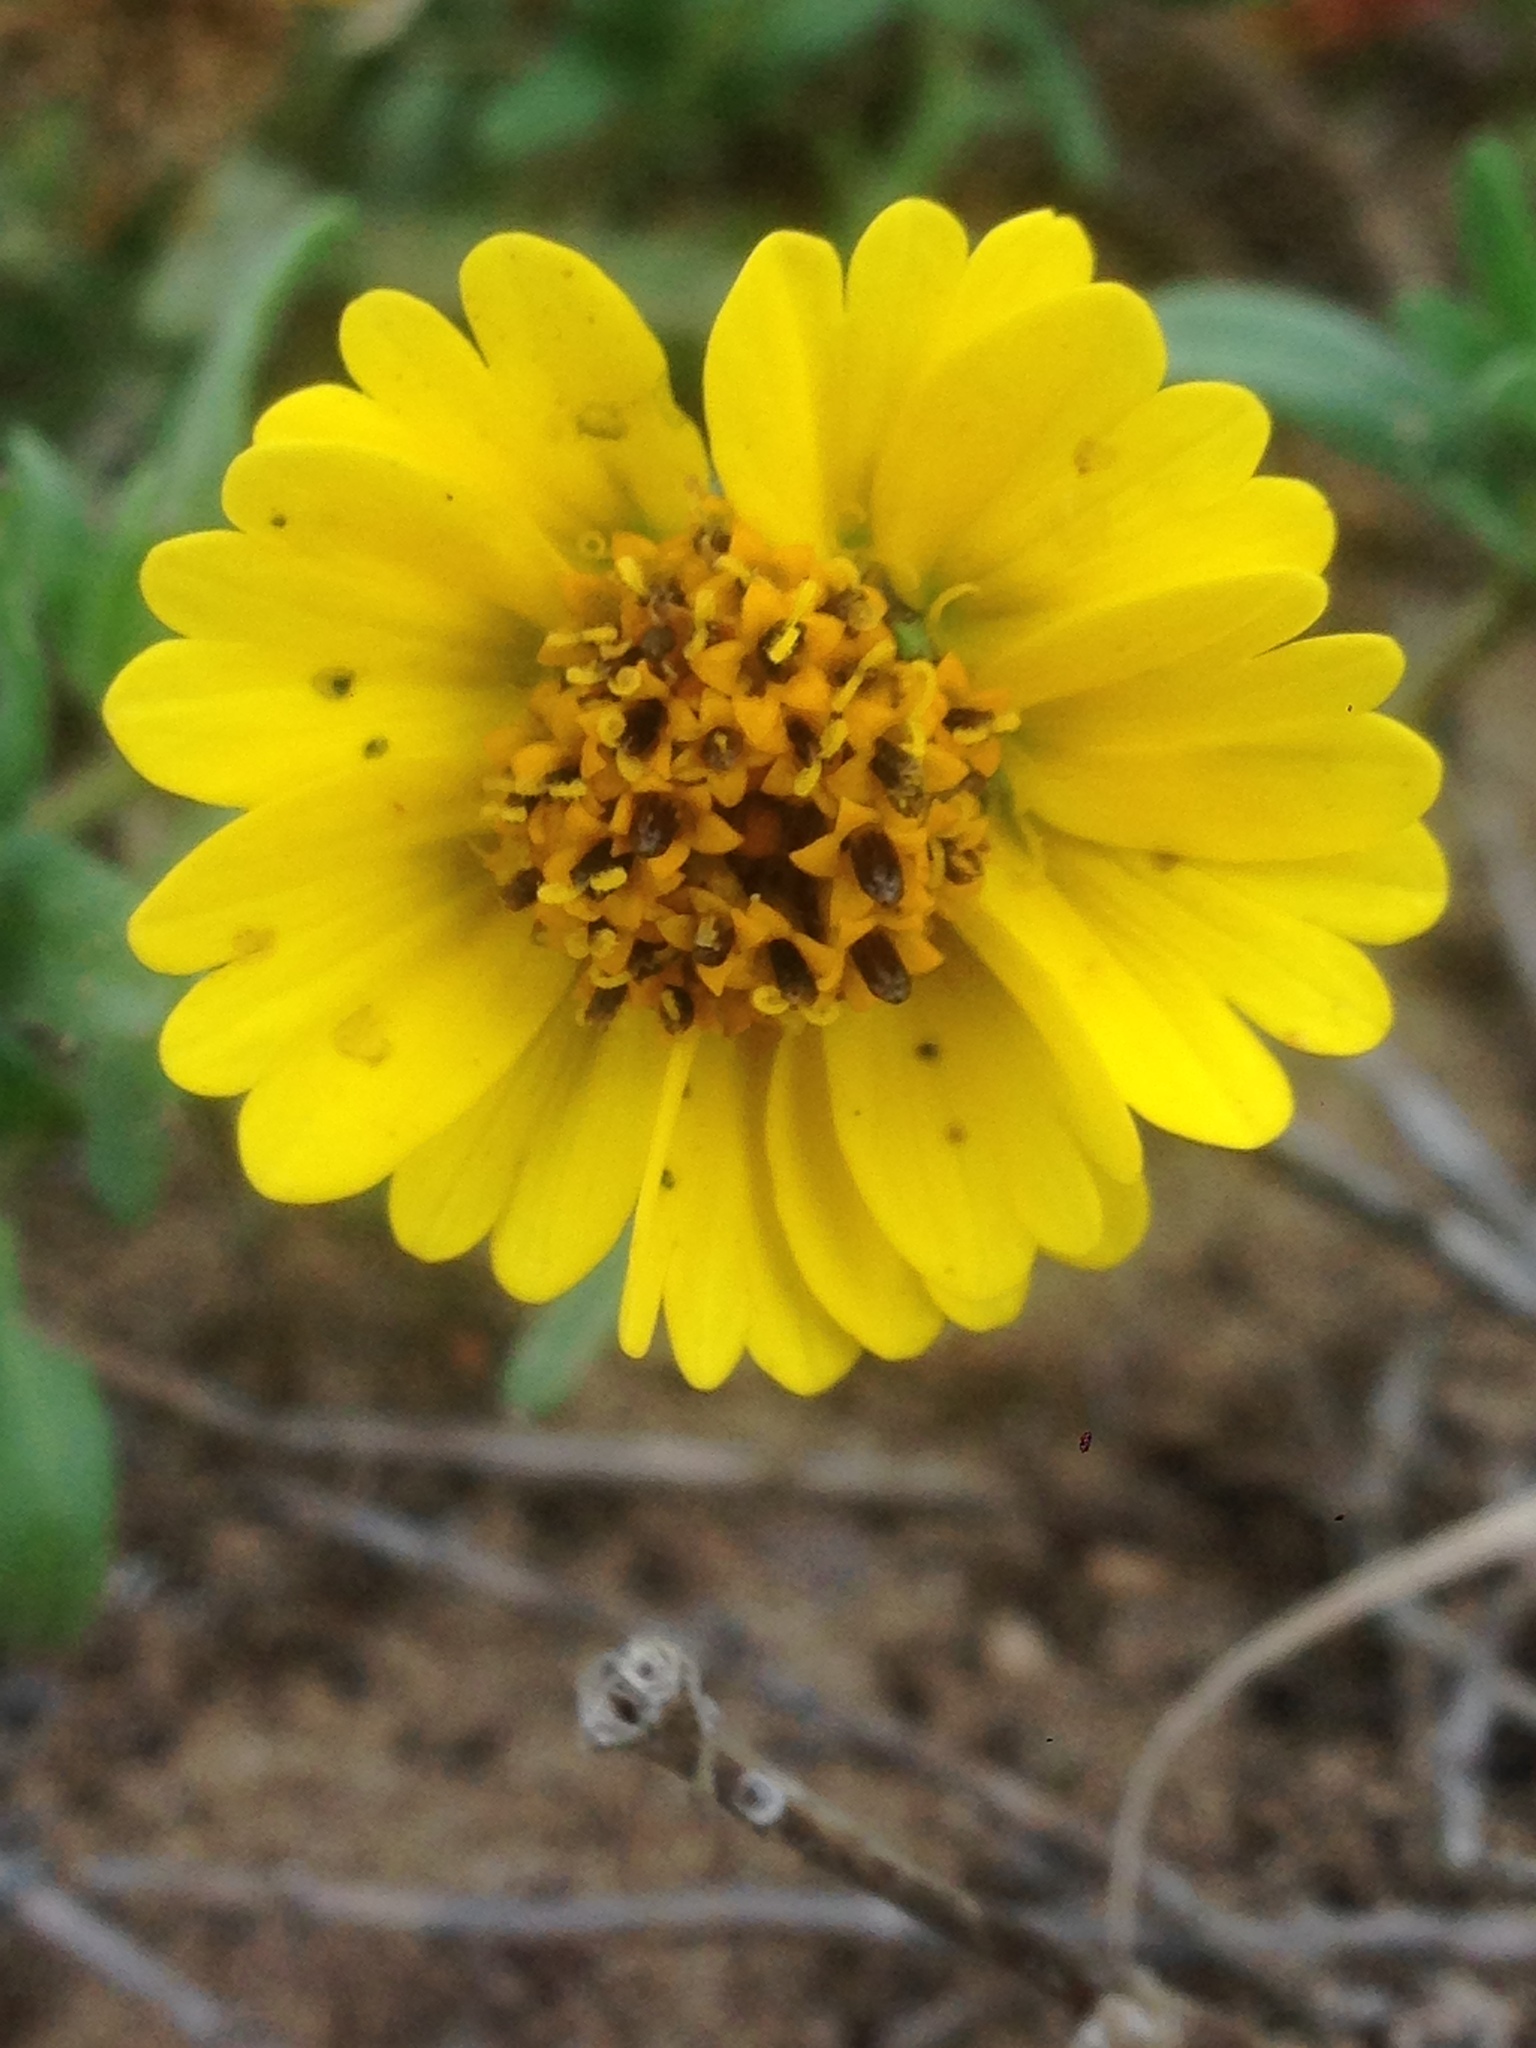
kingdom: Plantae
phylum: Tracheophyta
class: Magnoliopsida
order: Asterales
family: Asteraceae
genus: Layia
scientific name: Layia platyglossa
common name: Tidy-tips
